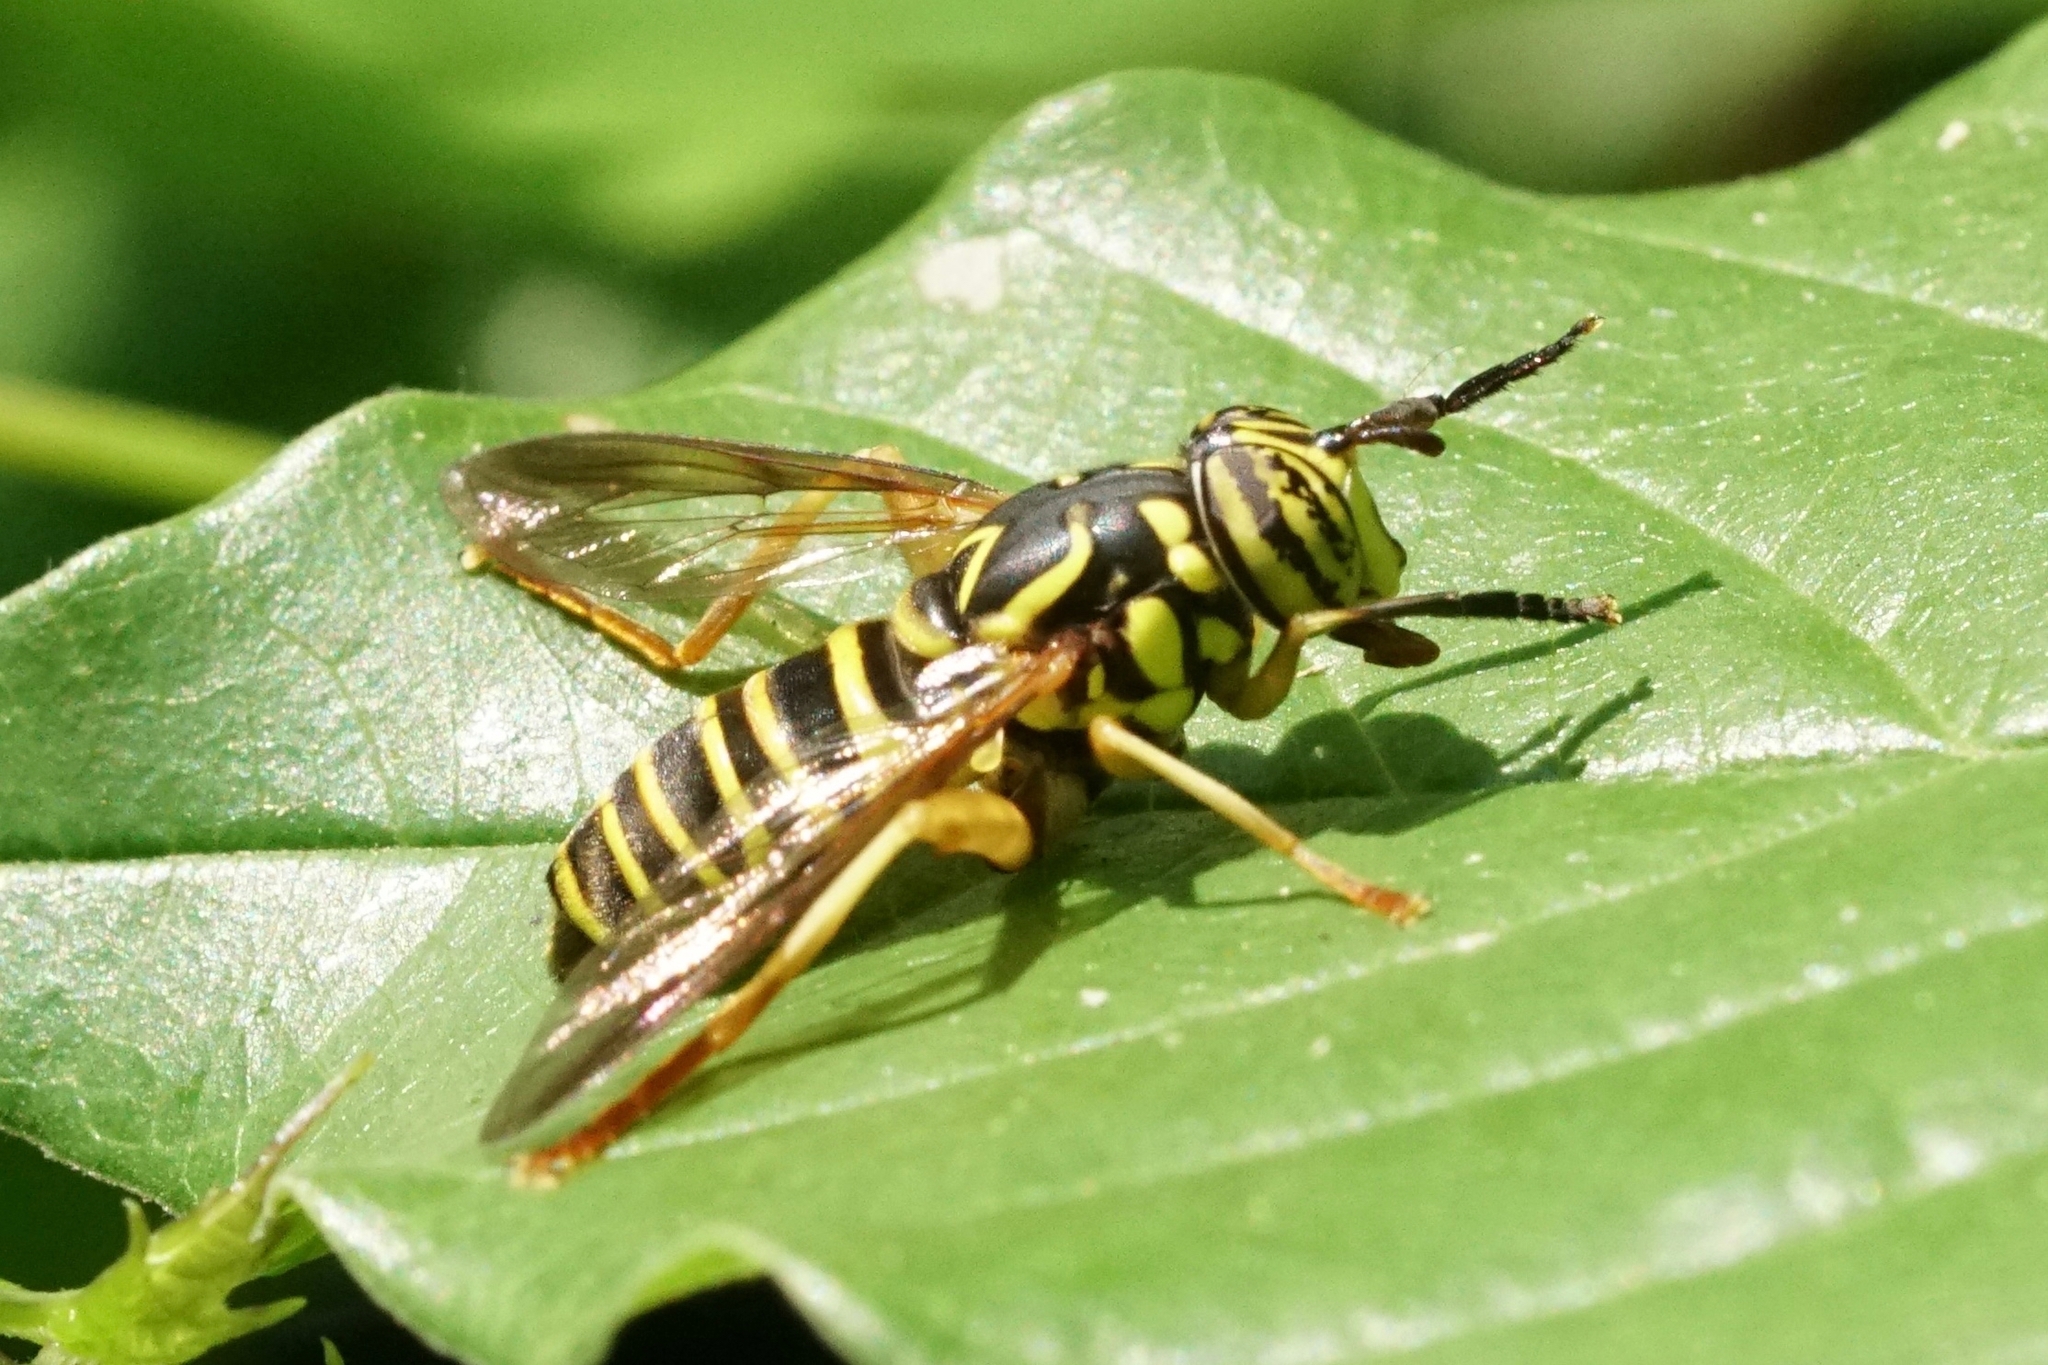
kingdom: Animalia
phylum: Arthropoda
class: Insecta
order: Diptera
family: Syrphidae
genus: Spilomyia
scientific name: Spilomyia longicornis
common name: Eastern hornet fly
